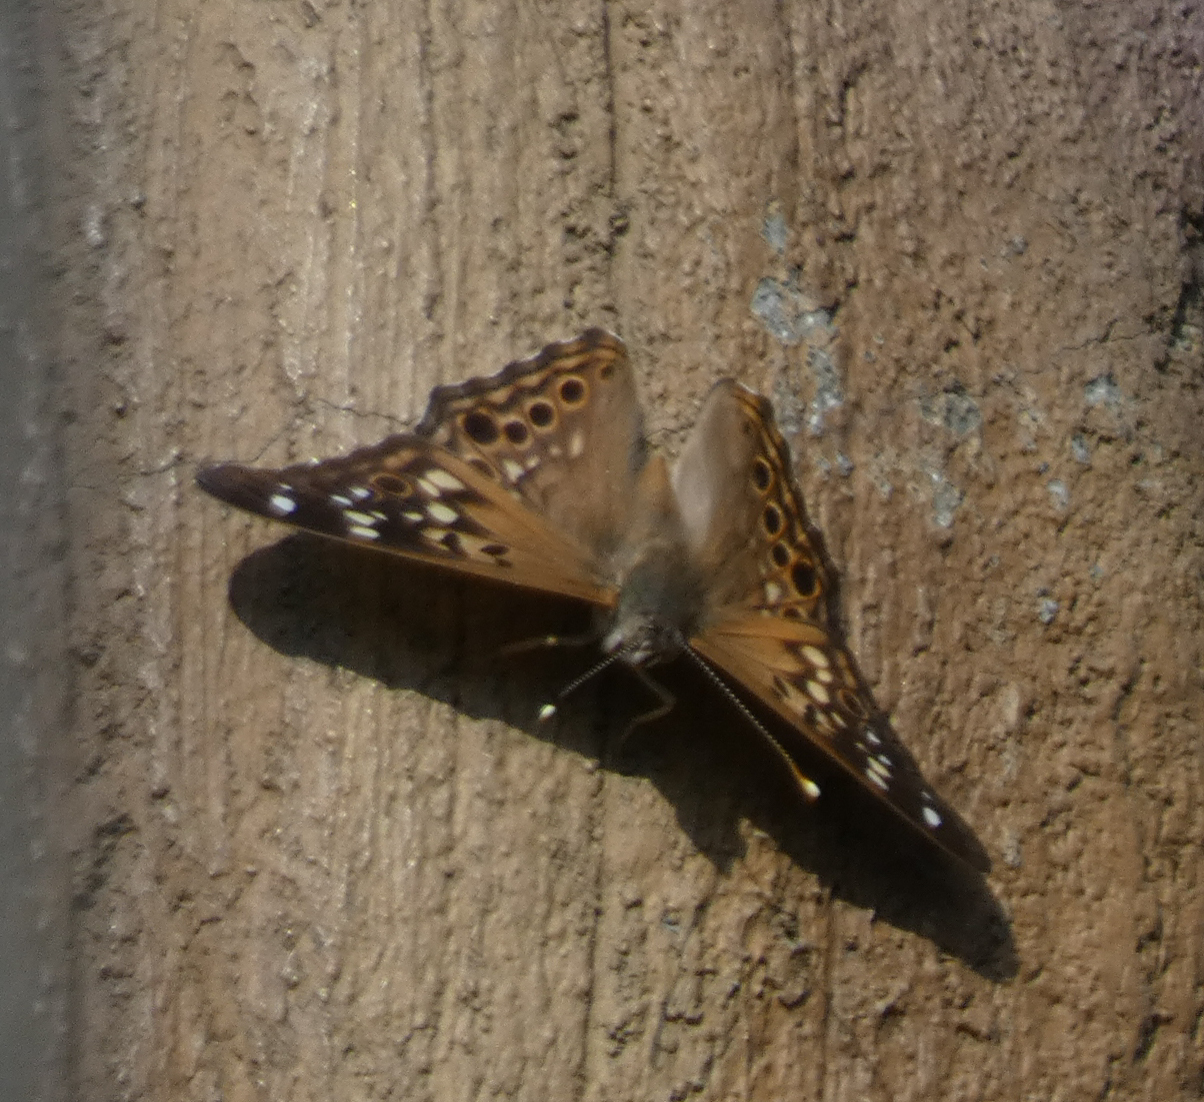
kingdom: Animalia
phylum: Arthropoda
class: Insecta
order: Lepidoptera
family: Nymphalidae
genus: Asterocampa
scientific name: Asterocampa celtis
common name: Hackberry emperor
